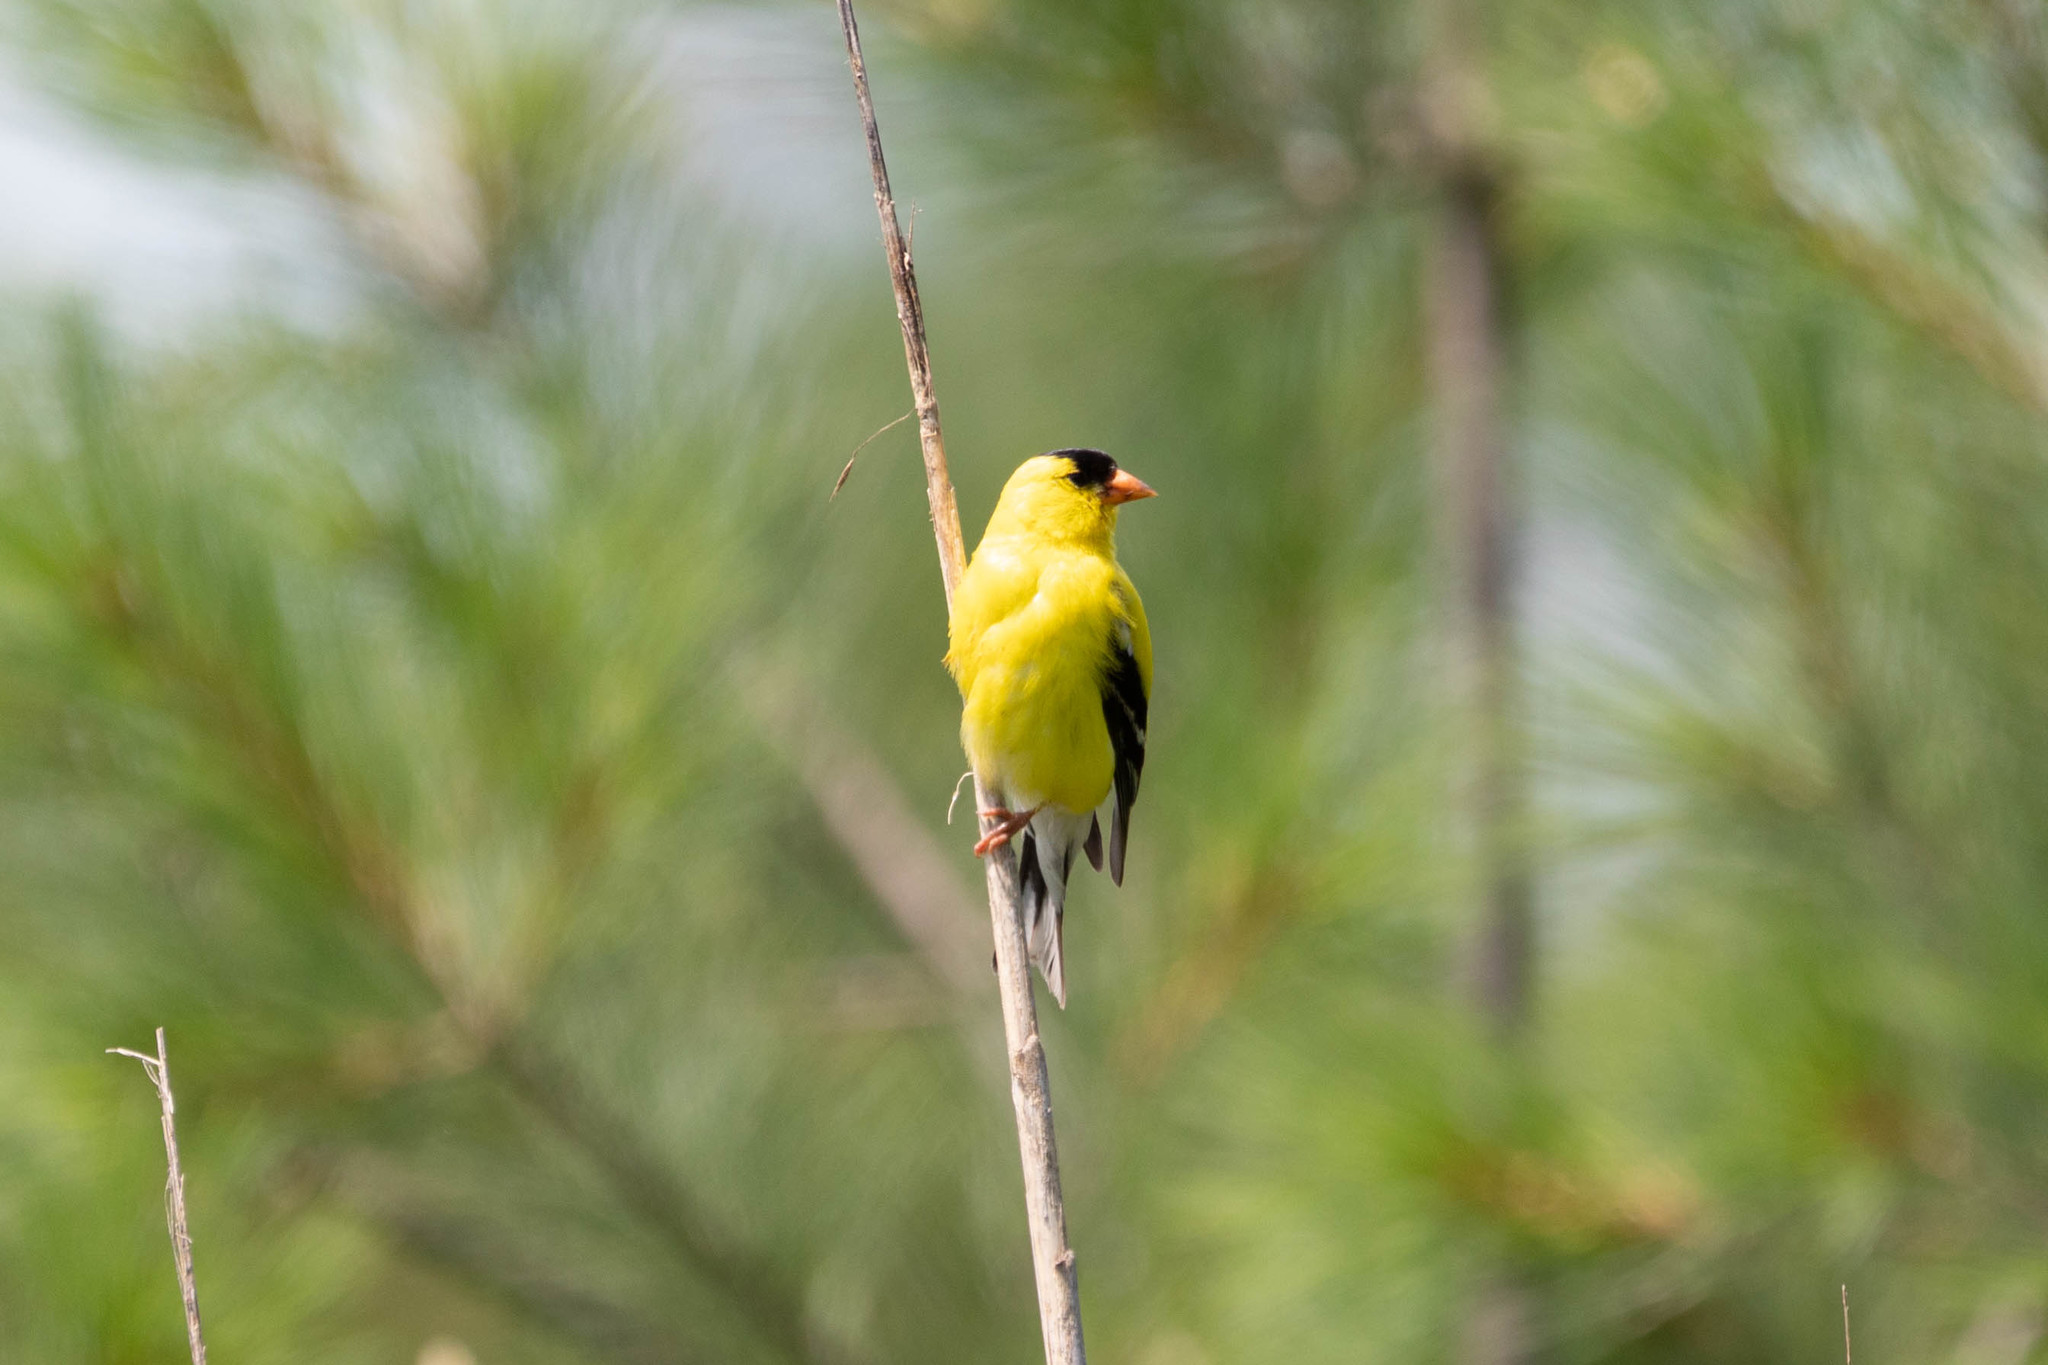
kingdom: Animalia
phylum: Chordata
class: Aves
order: Passeriformes
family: Fringillidae
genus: Spinus
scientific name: Spinus tristis
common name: American goldfinch
